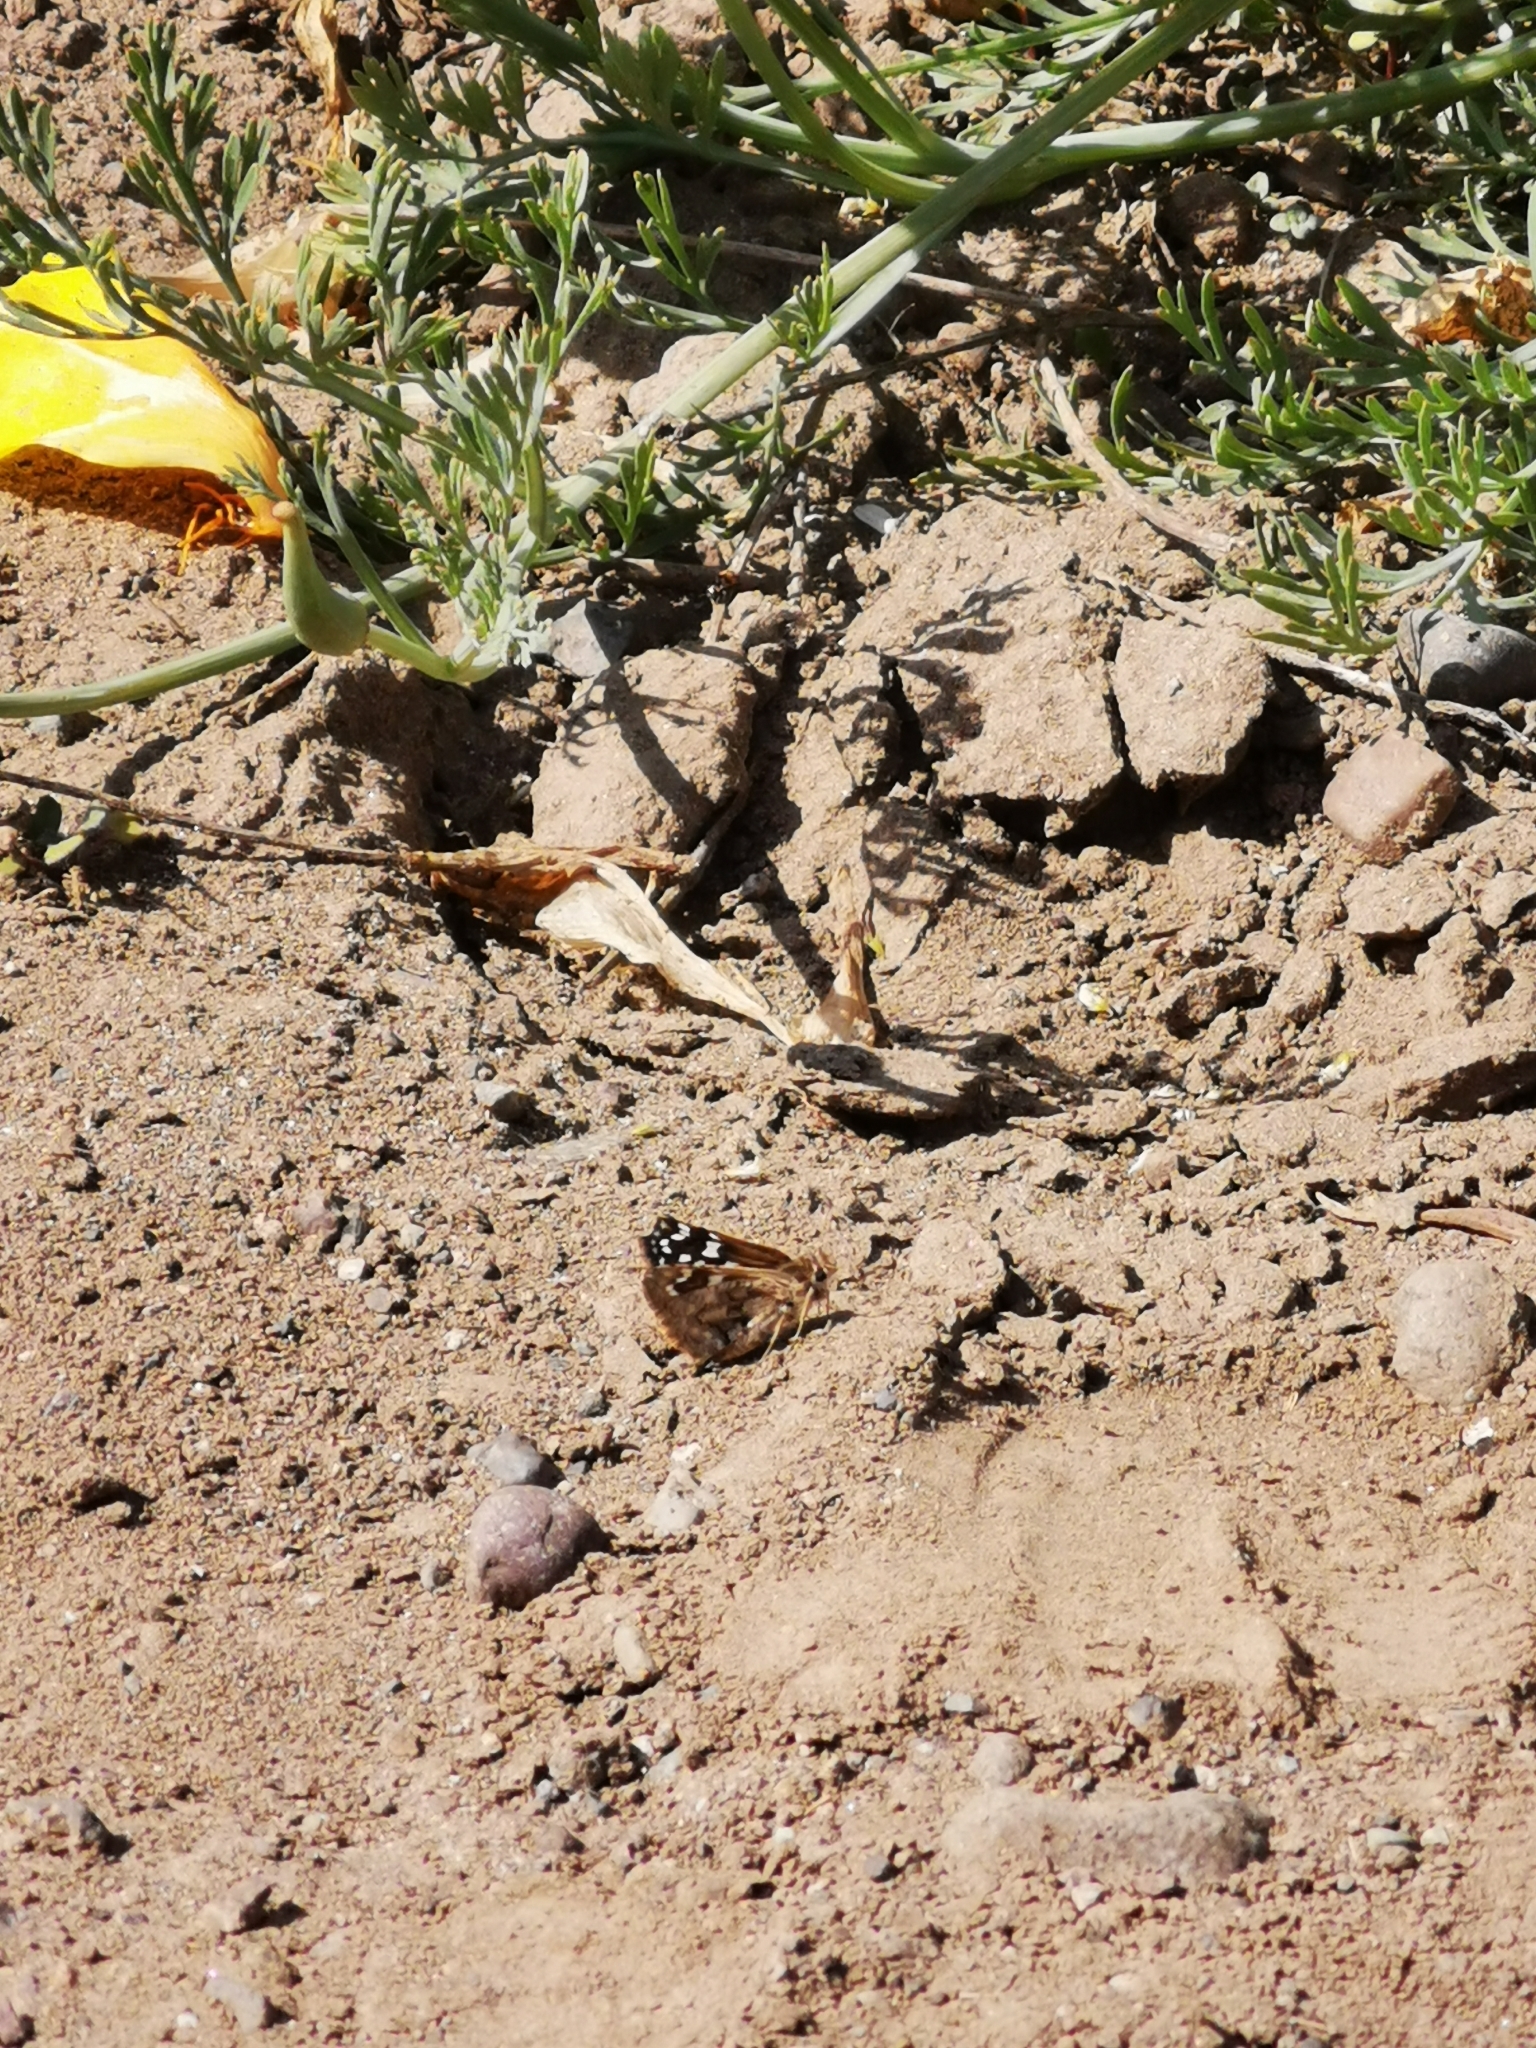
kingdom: Animalia
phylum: Arthropoda
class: Insecta
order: Lepidoptera
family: Hesperiidae
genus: Chirgus
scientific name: Chirgus fides
